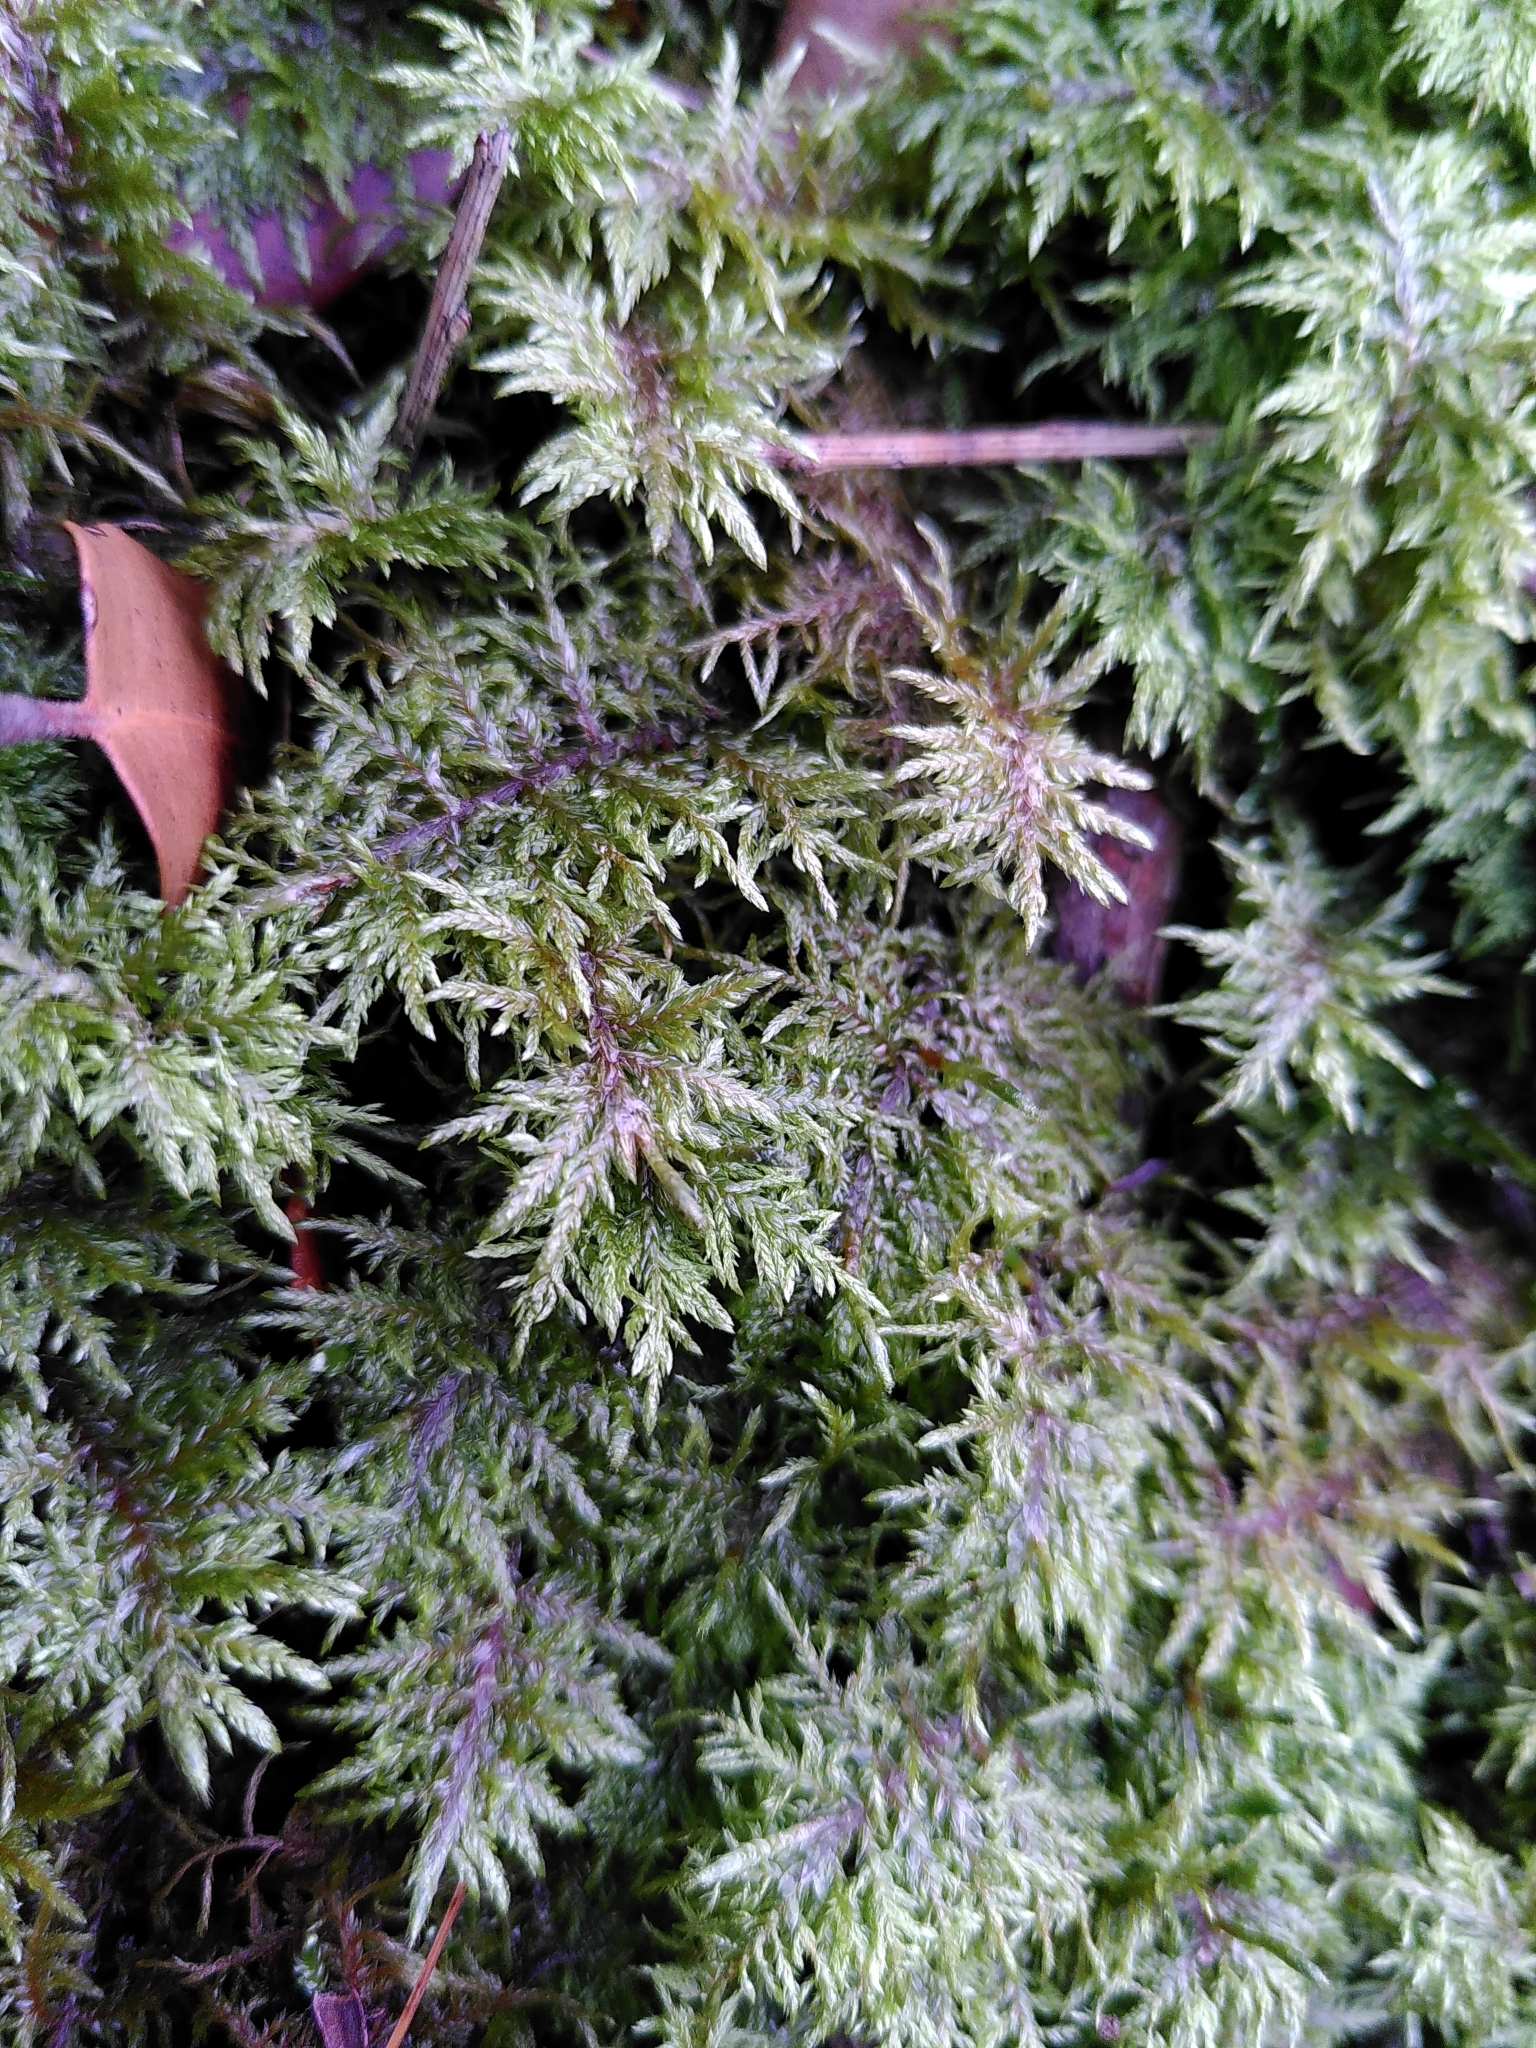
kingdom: Plantae
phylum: Bryophyta
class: Bryopsida
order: Hypnales
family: Hylocomiaceae
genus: Hylocomium
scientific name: Hylocomium splendens
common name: Stairstep moss
